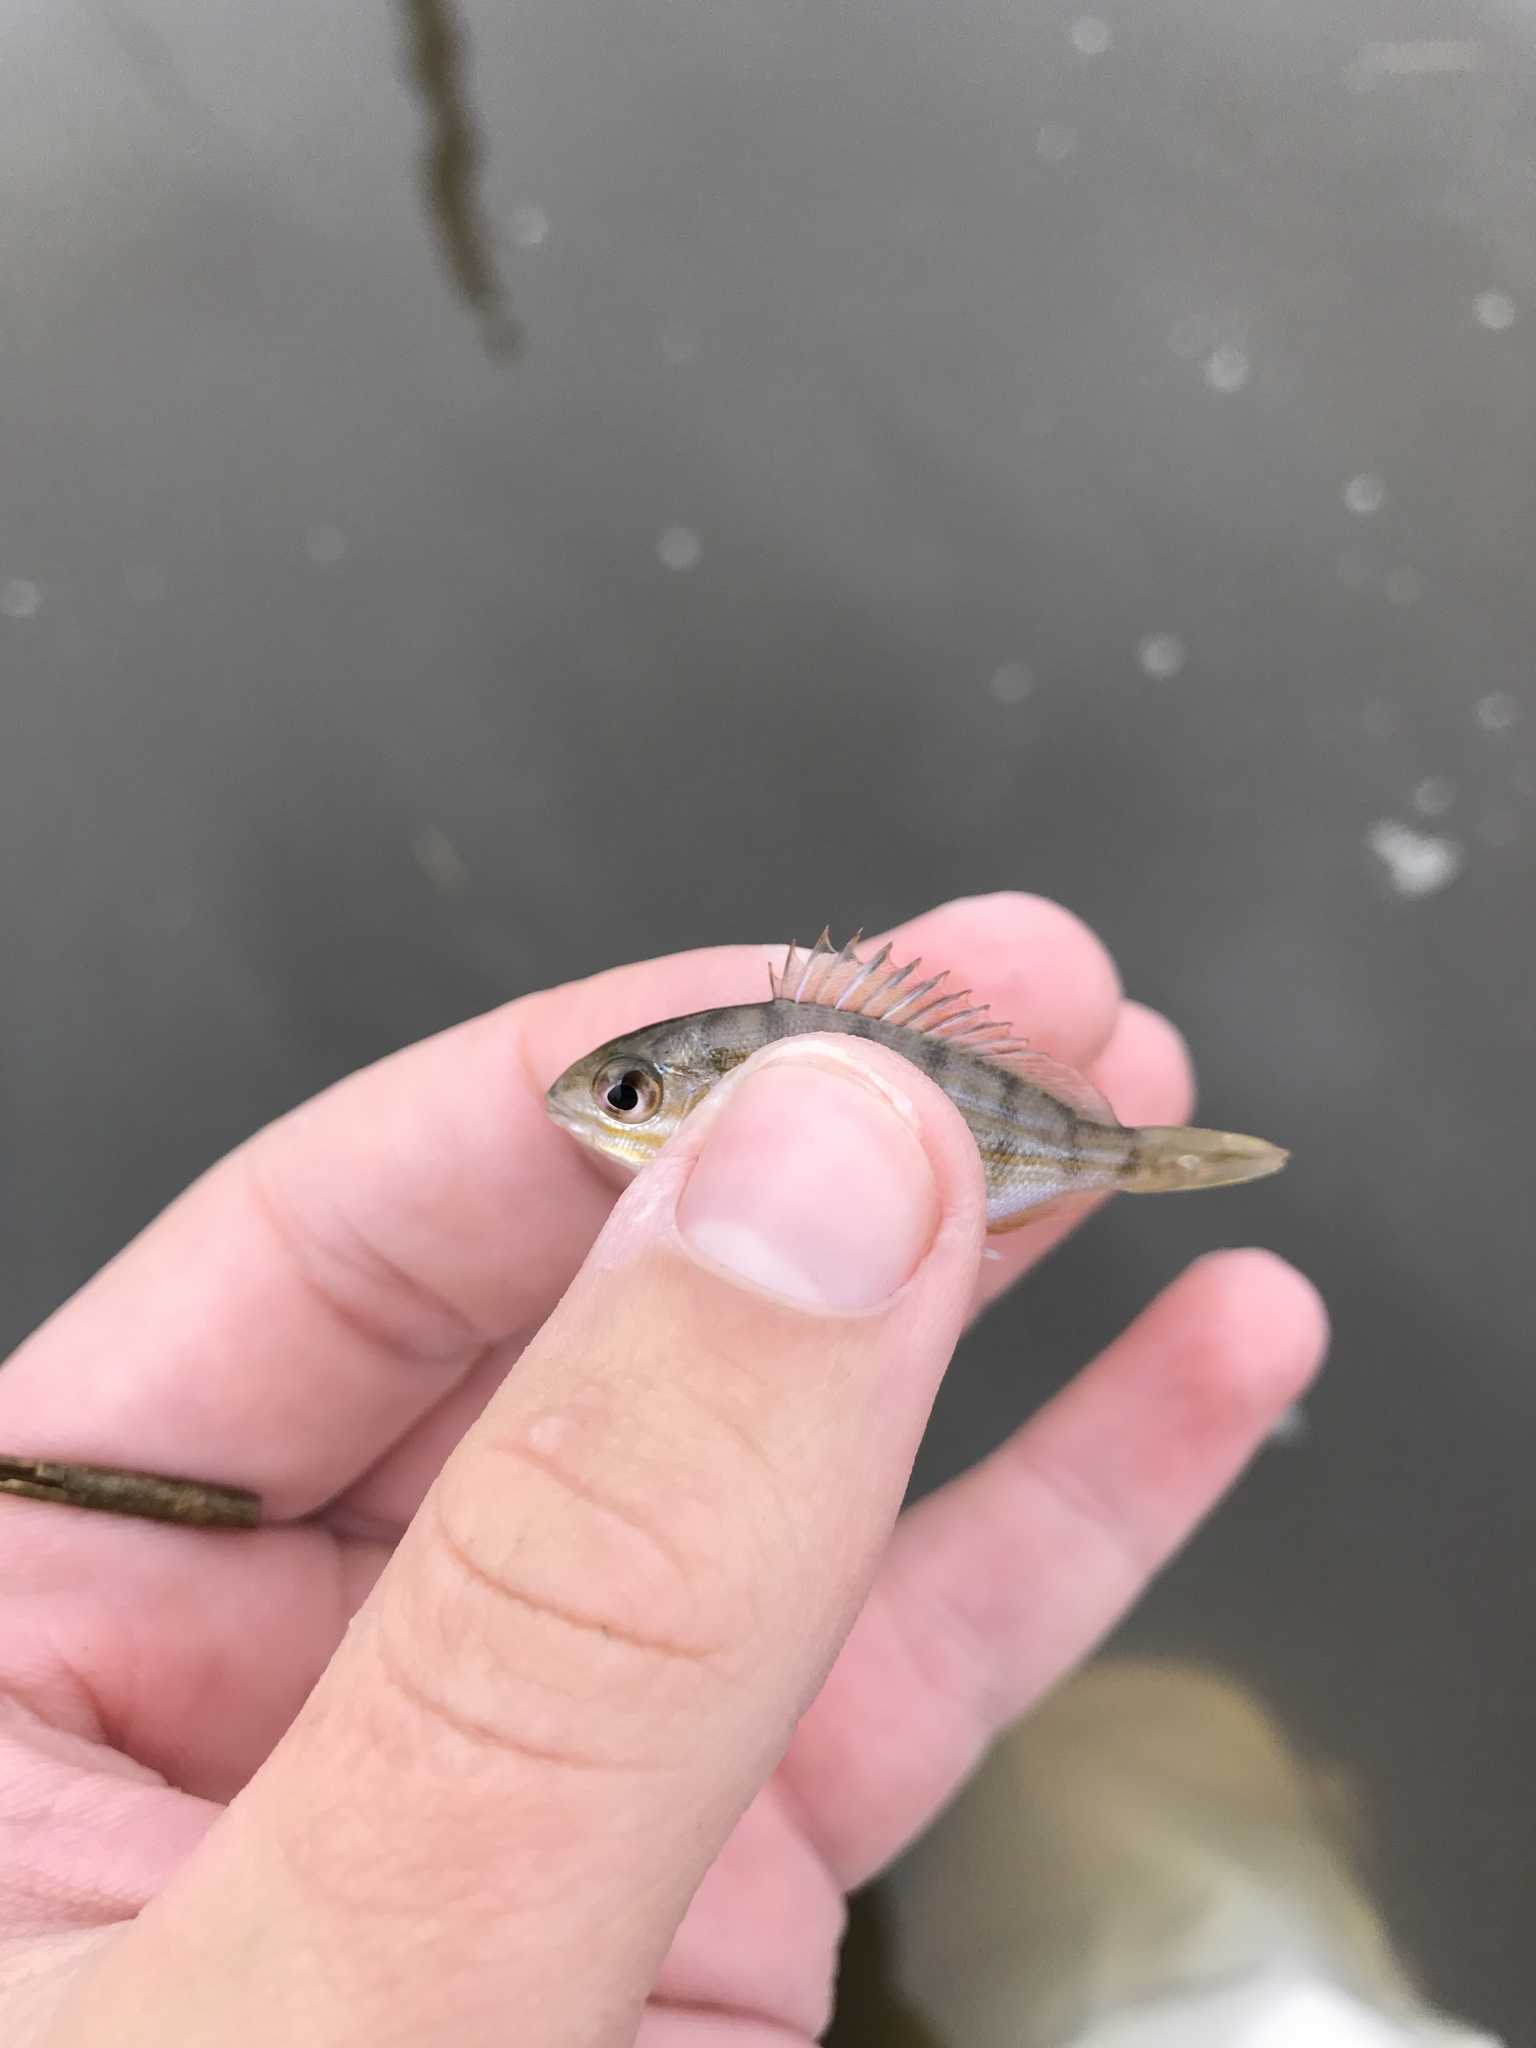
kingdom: Animalia
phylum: Chordata
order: Perciformes
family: Sparidae
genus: Lagodon
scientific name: Lagodon rhomboides
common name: Pinfish
